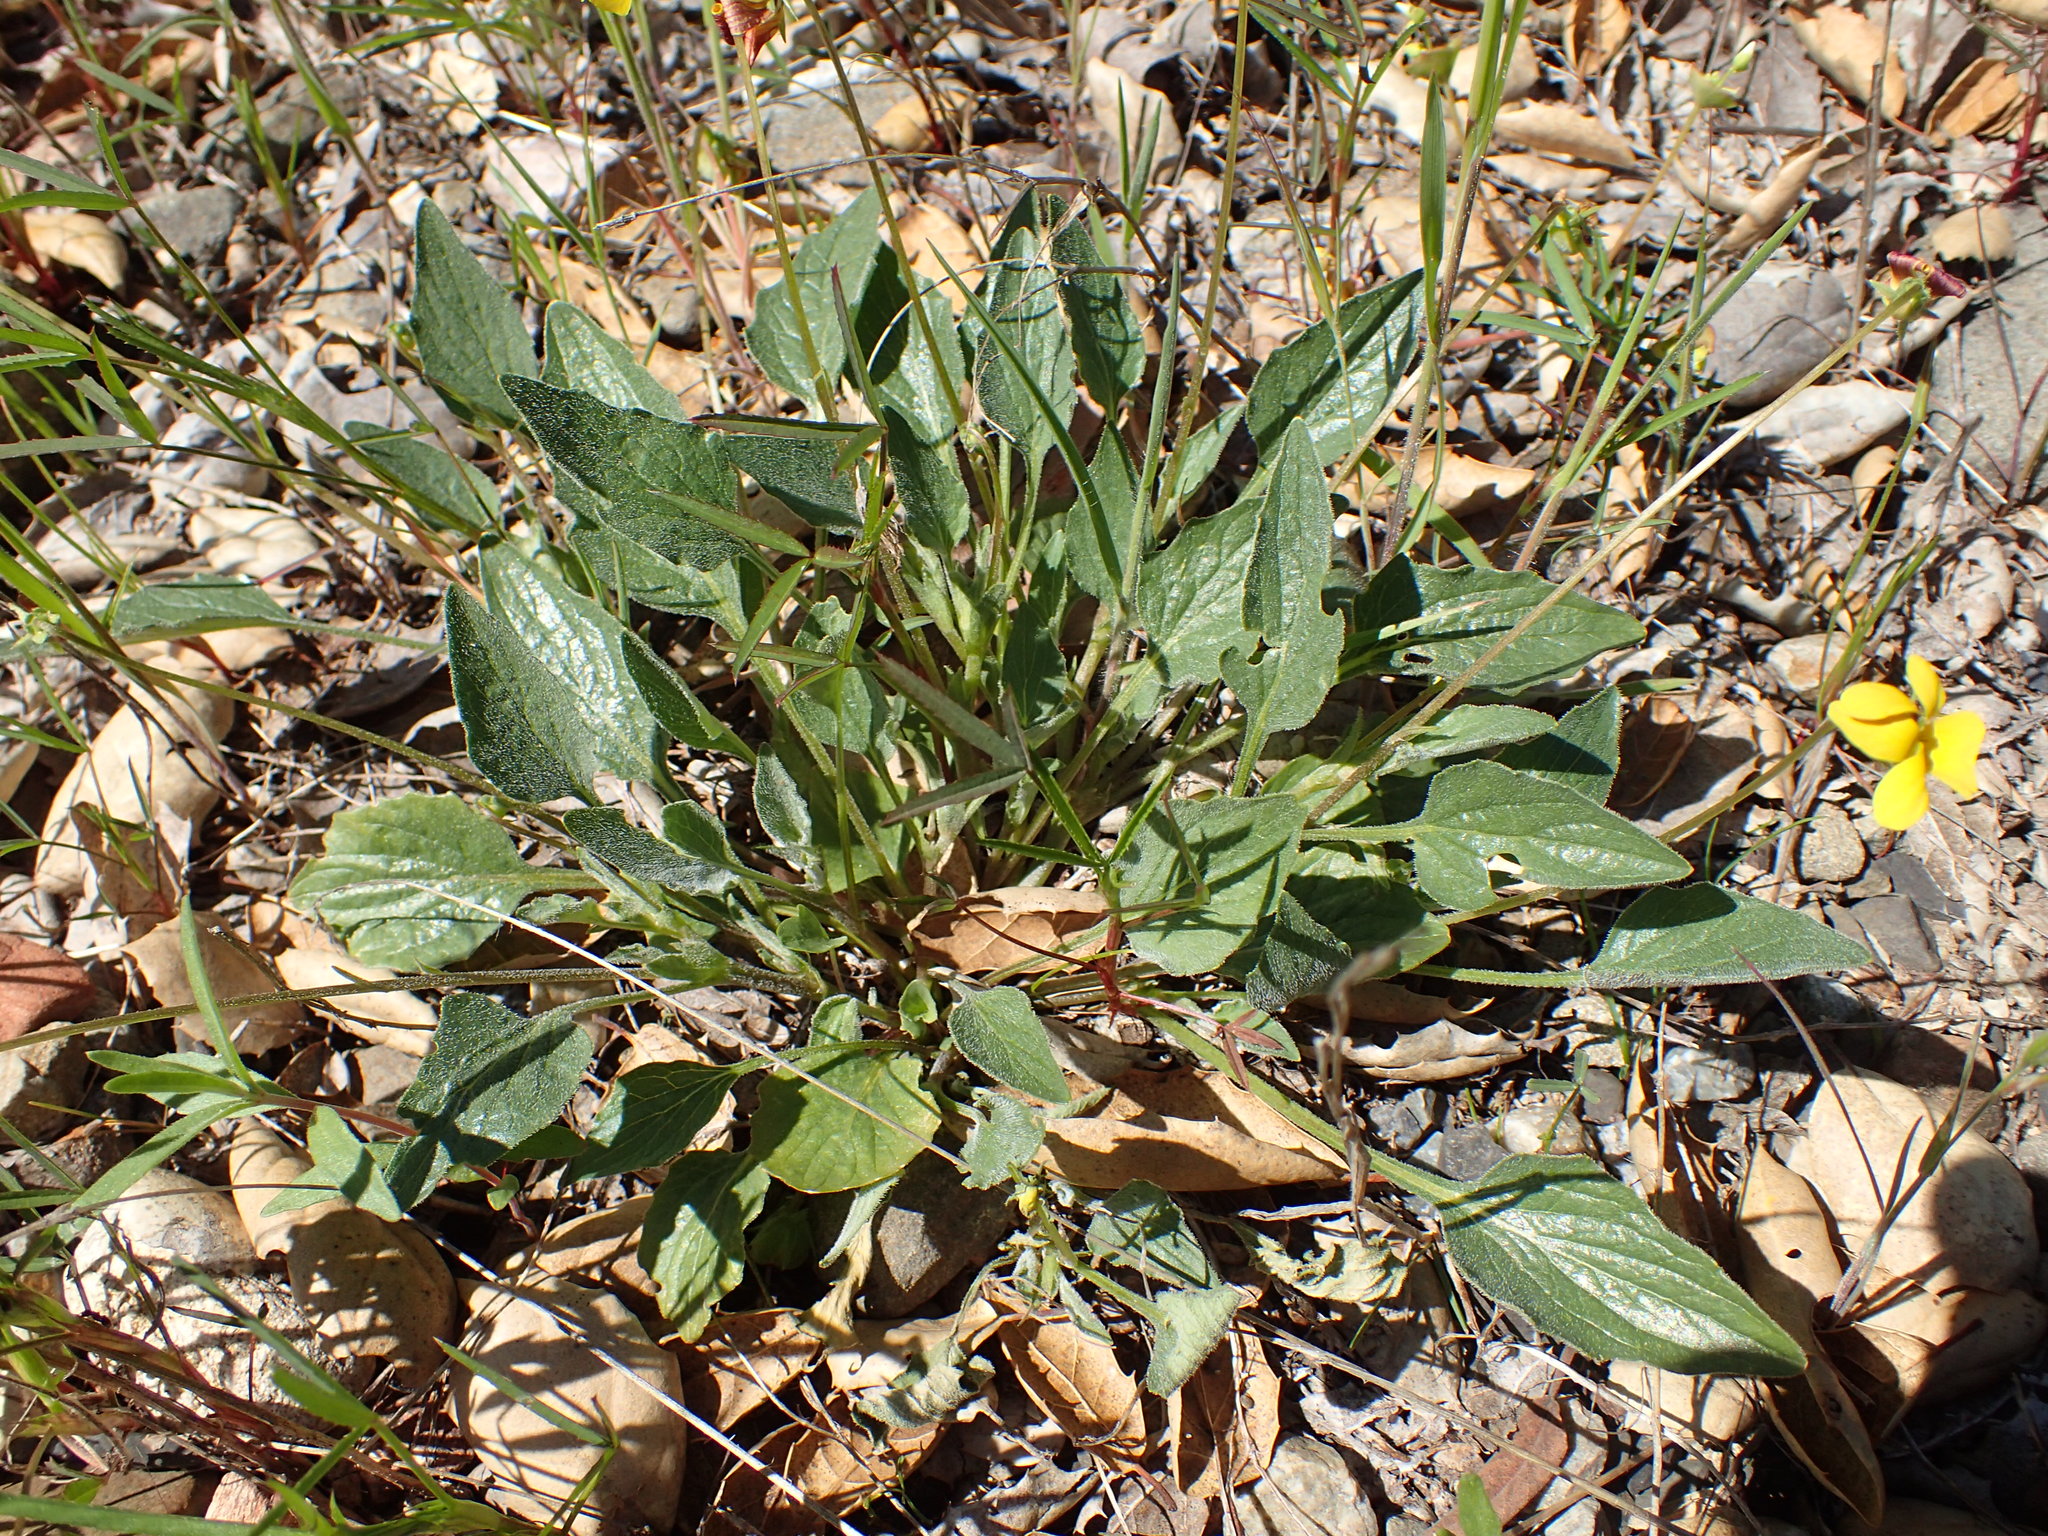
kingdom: Plantae
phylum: Tracheophyta
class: Magnoliopsida
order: Malpighiales
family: Violaceae
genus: Viola
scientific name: Viola purpurea
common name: Pine violet
